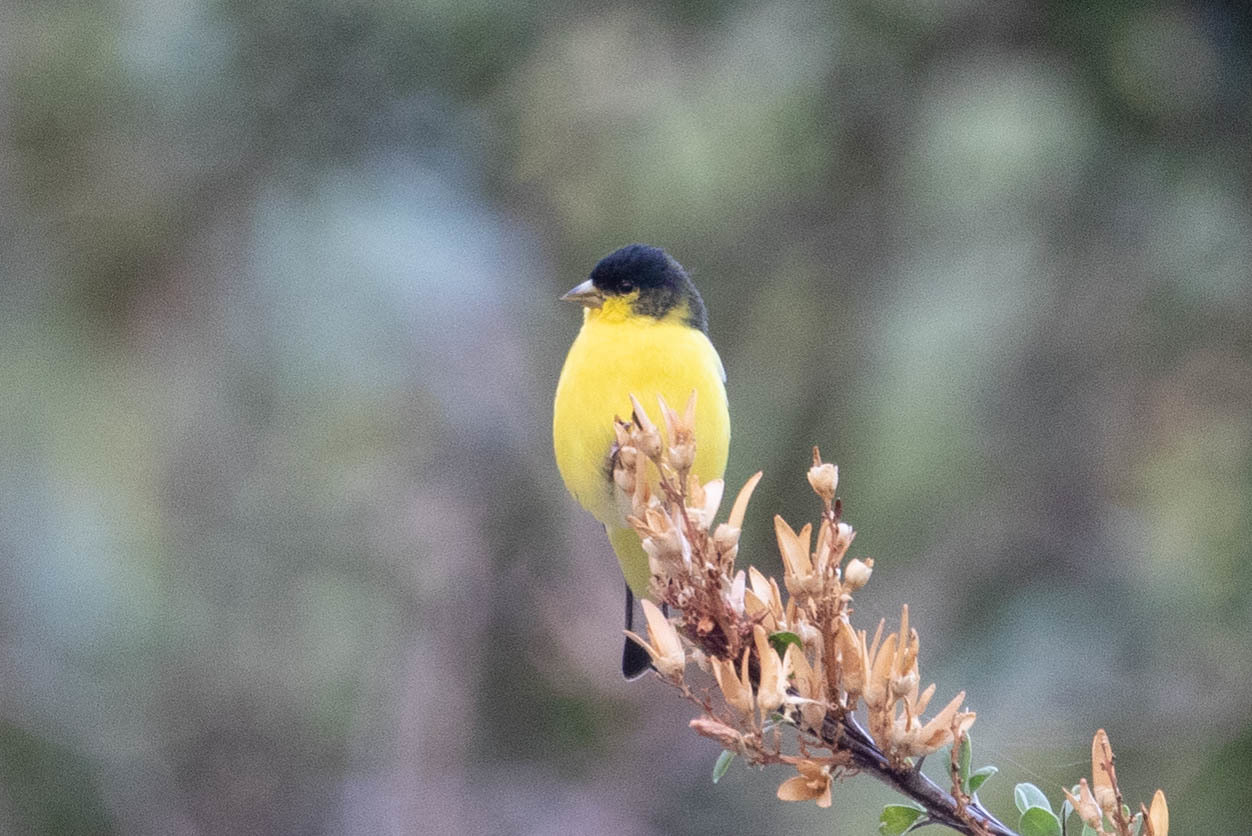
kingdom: Animalia
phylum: Chordata
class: Aves
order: Passeriformes
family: Fringillidae
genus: Spinus
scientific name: Spinus psaltria
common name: Lesser goldfinch
